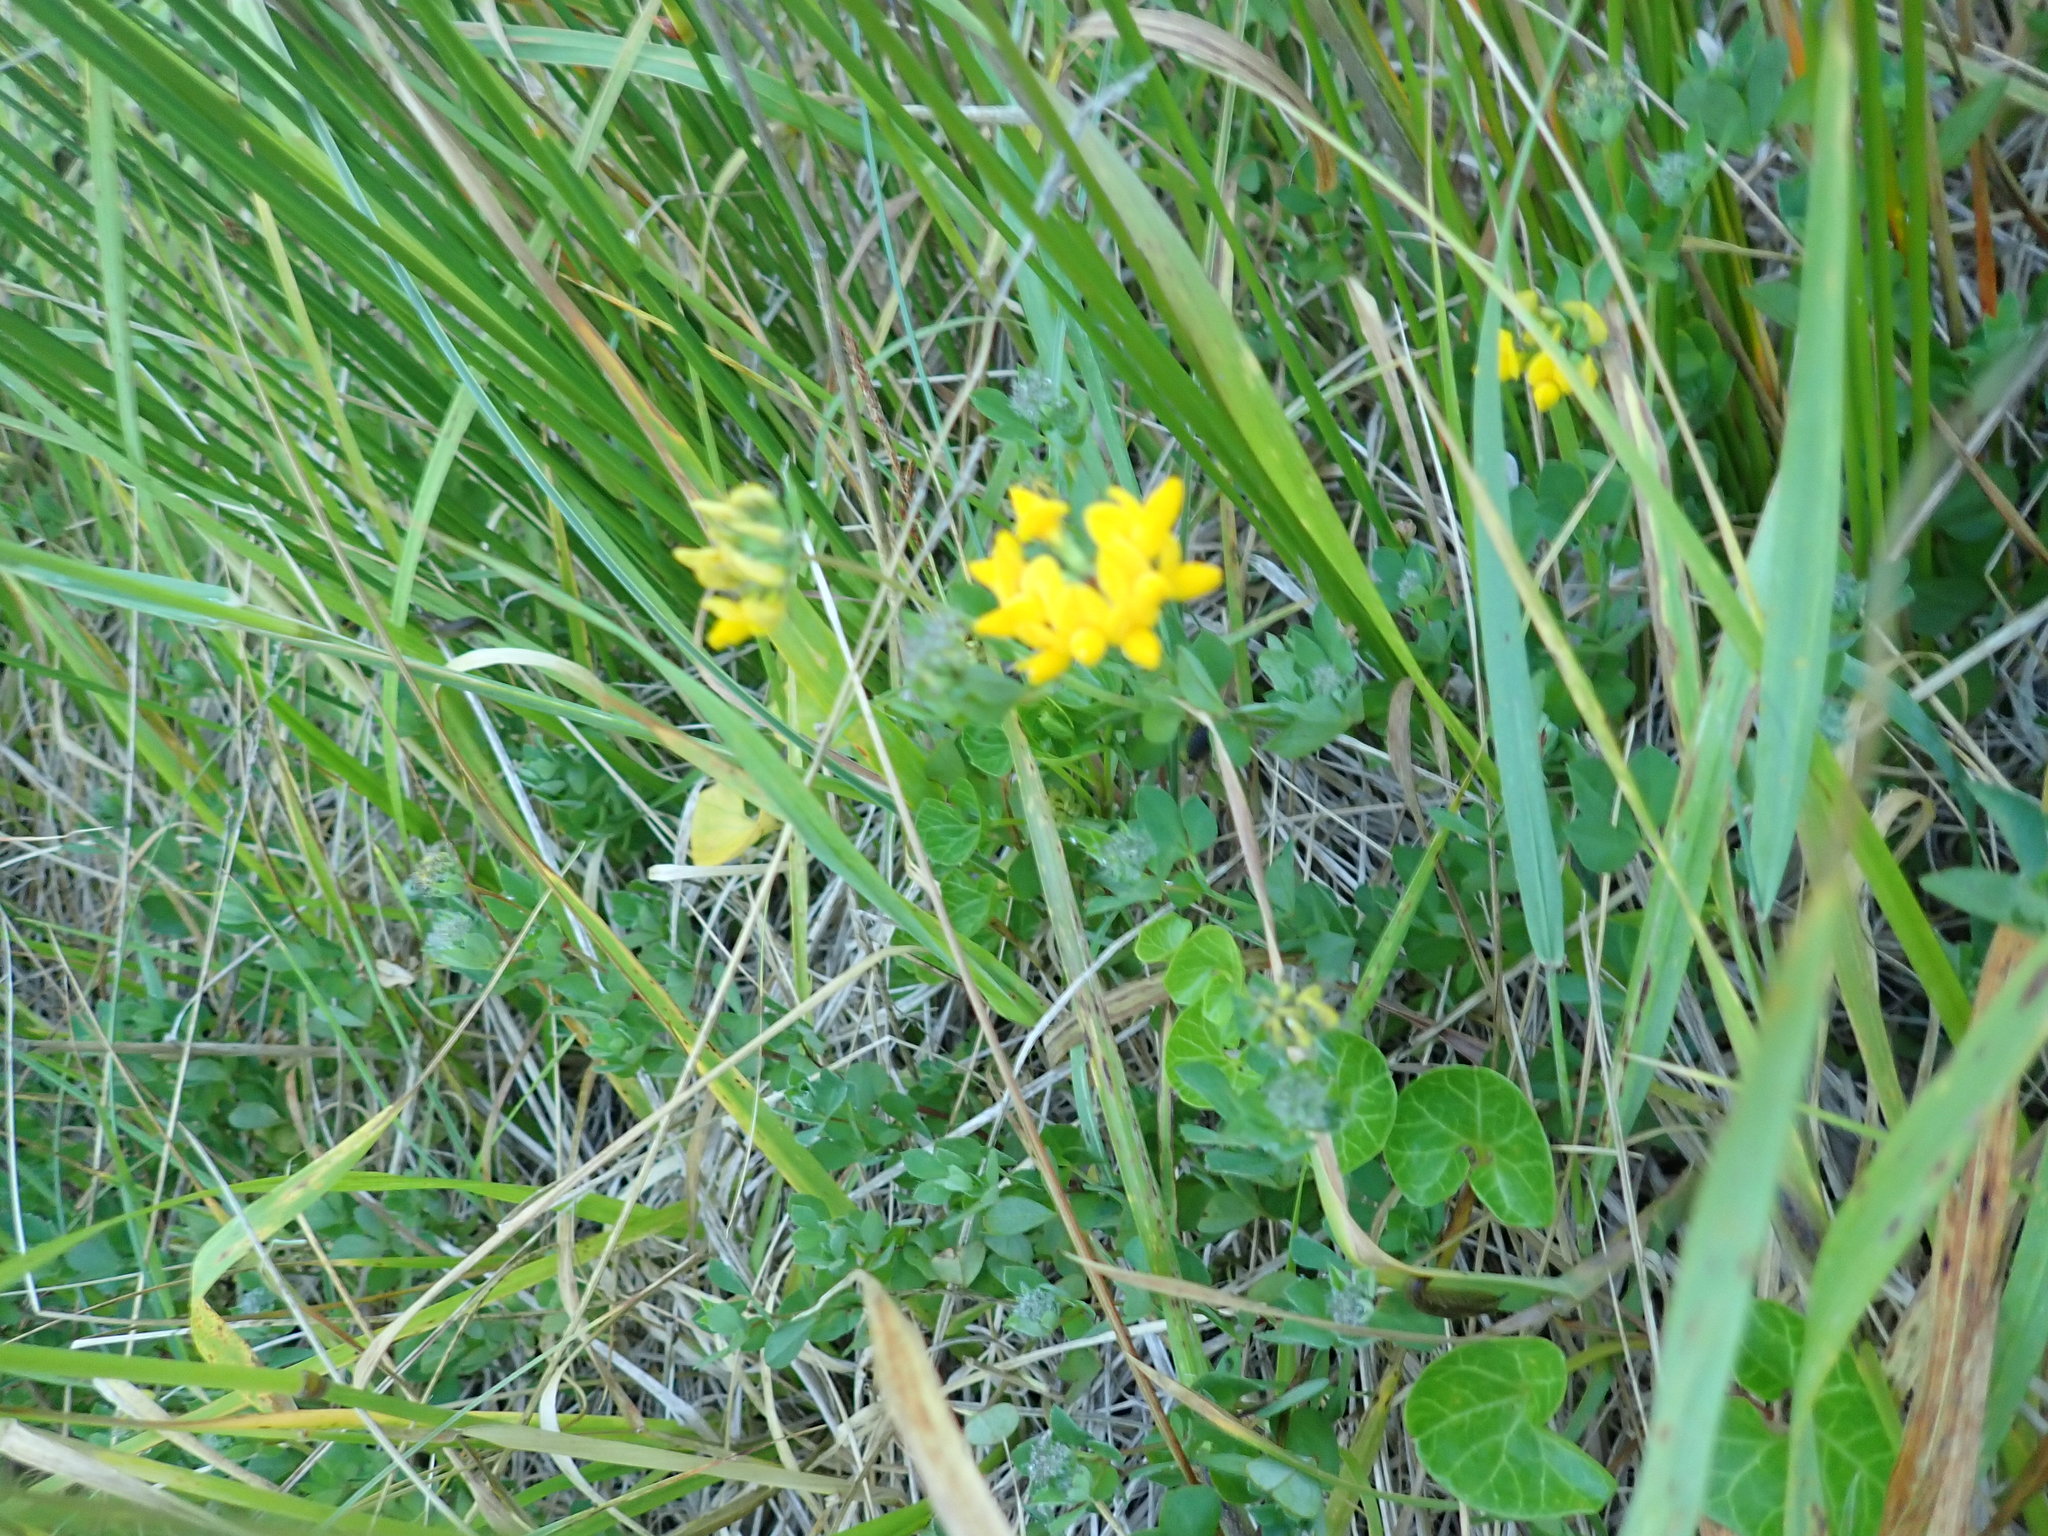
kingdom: Plantae
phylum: Tracheophyta
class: Magnoliopsida
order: Fabales
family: Fabaceae
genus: Lotus
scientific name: Lotus pedunculatus
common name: Greater birdsfoot-trefoil
